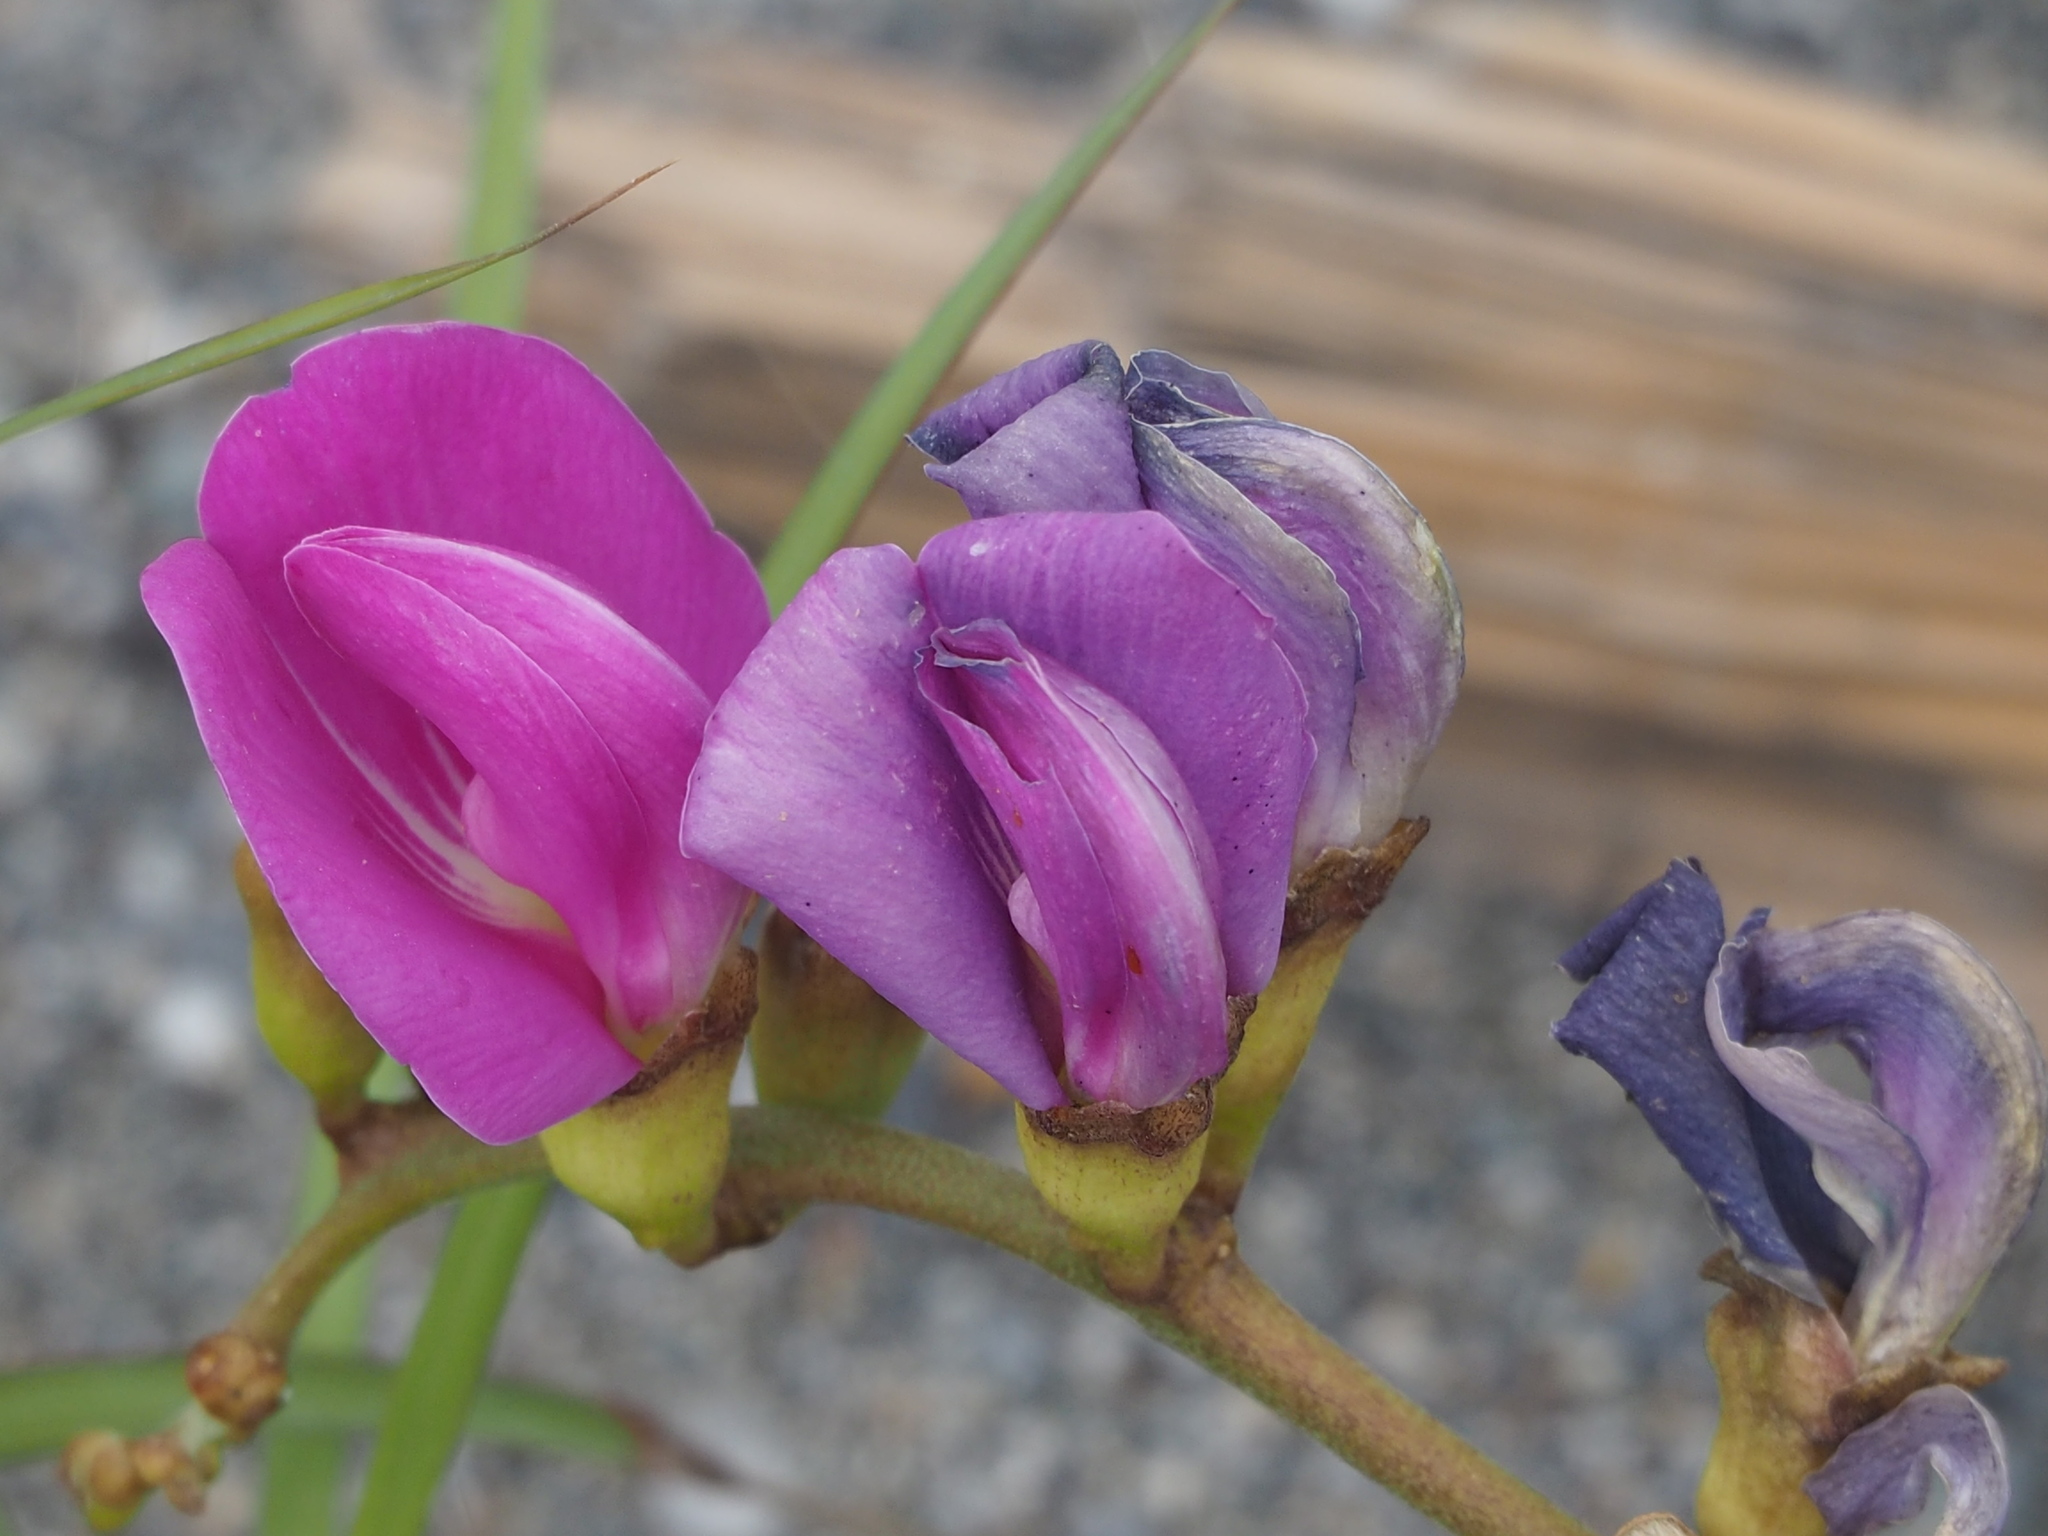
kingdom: Plantae
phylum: Tracheophyta
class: Magnoliopsida
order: Fabales
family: Fabaceae
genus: Canavalia
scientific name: Canavalia rosea
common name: Beach-bean
